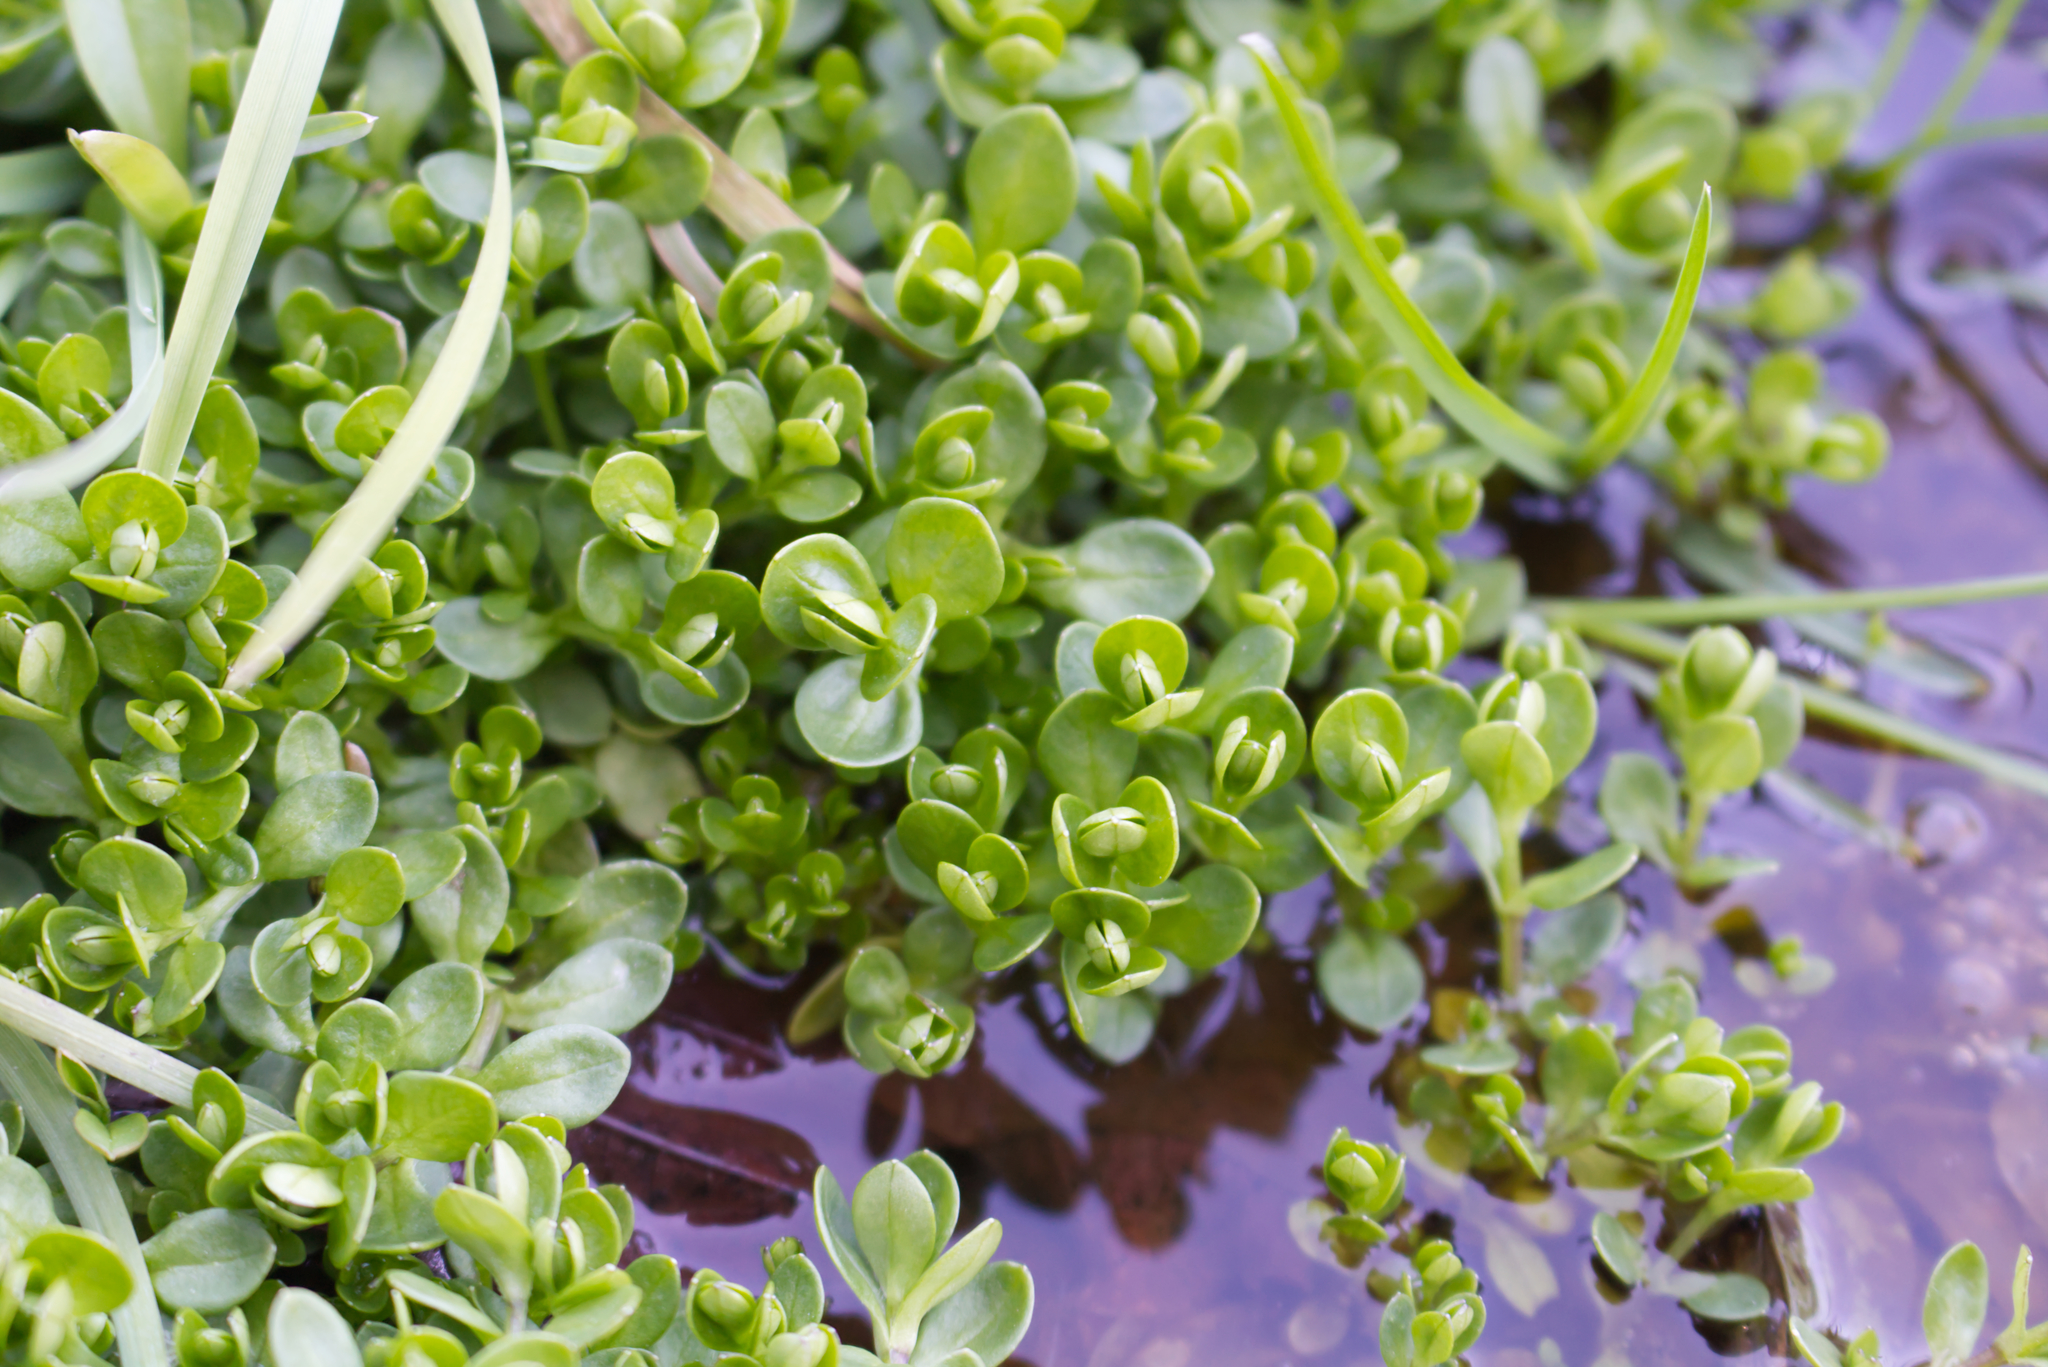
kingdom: Plantae
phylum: Tracheophyta
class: Magnoliopsida
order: Caryophyllales
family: Montiaceae
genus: Montia
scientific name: Montia fontana
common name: Blinks
